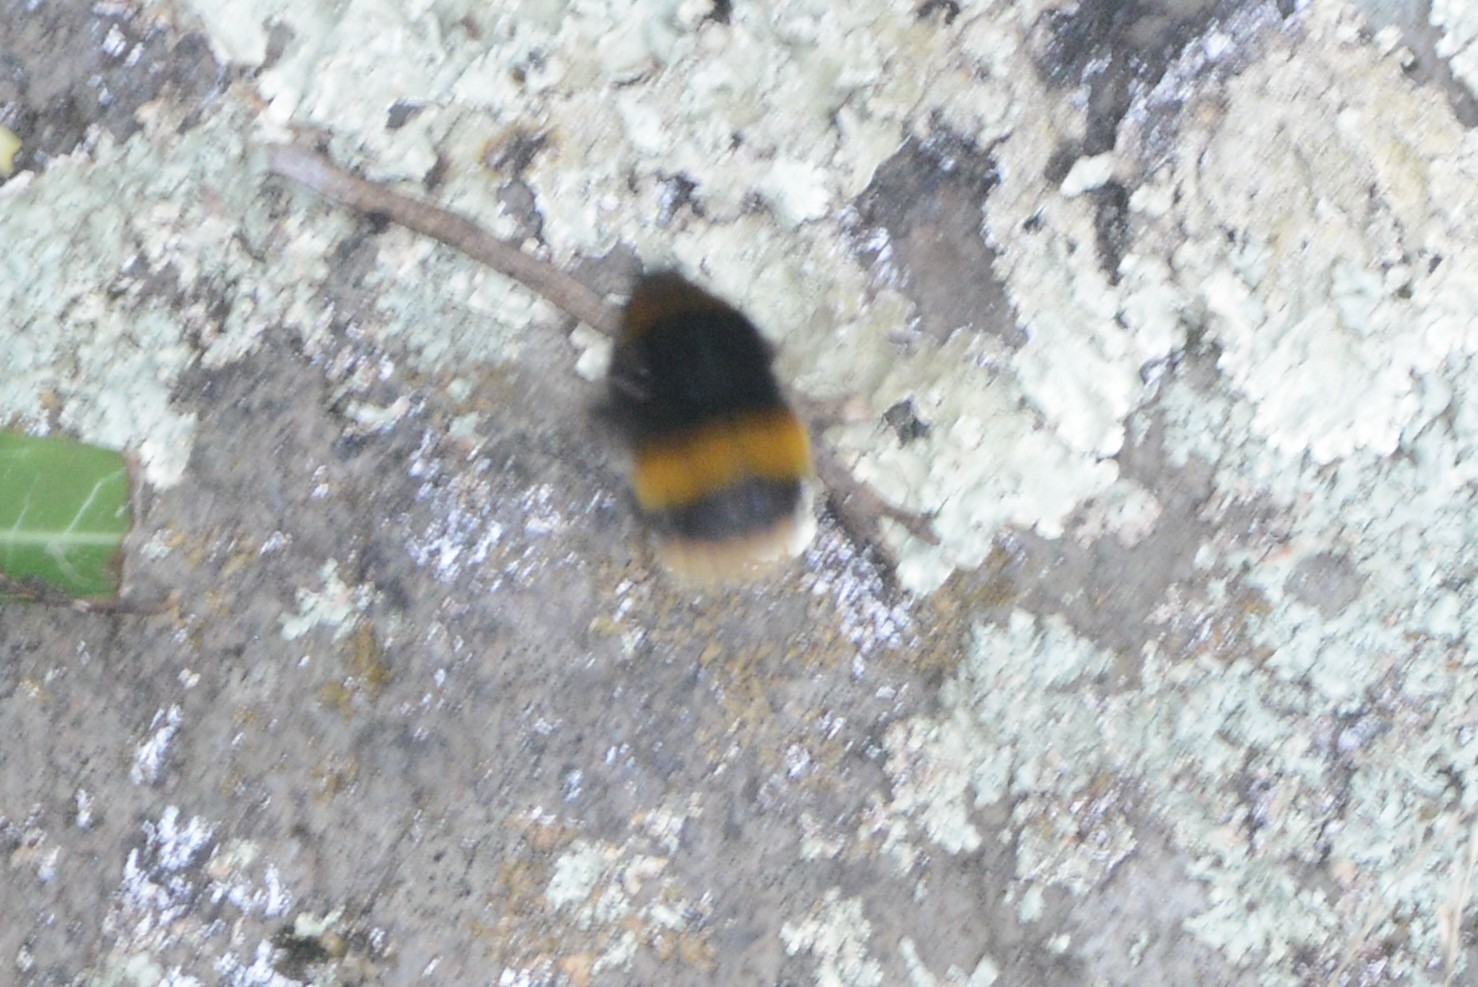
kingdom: Animalia
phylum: Arthropoda
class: Insecta
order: Hymenoptera
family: Apidae
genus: Bombus
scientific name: Bombus terrestris
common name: Buff-tailed bumblebee
